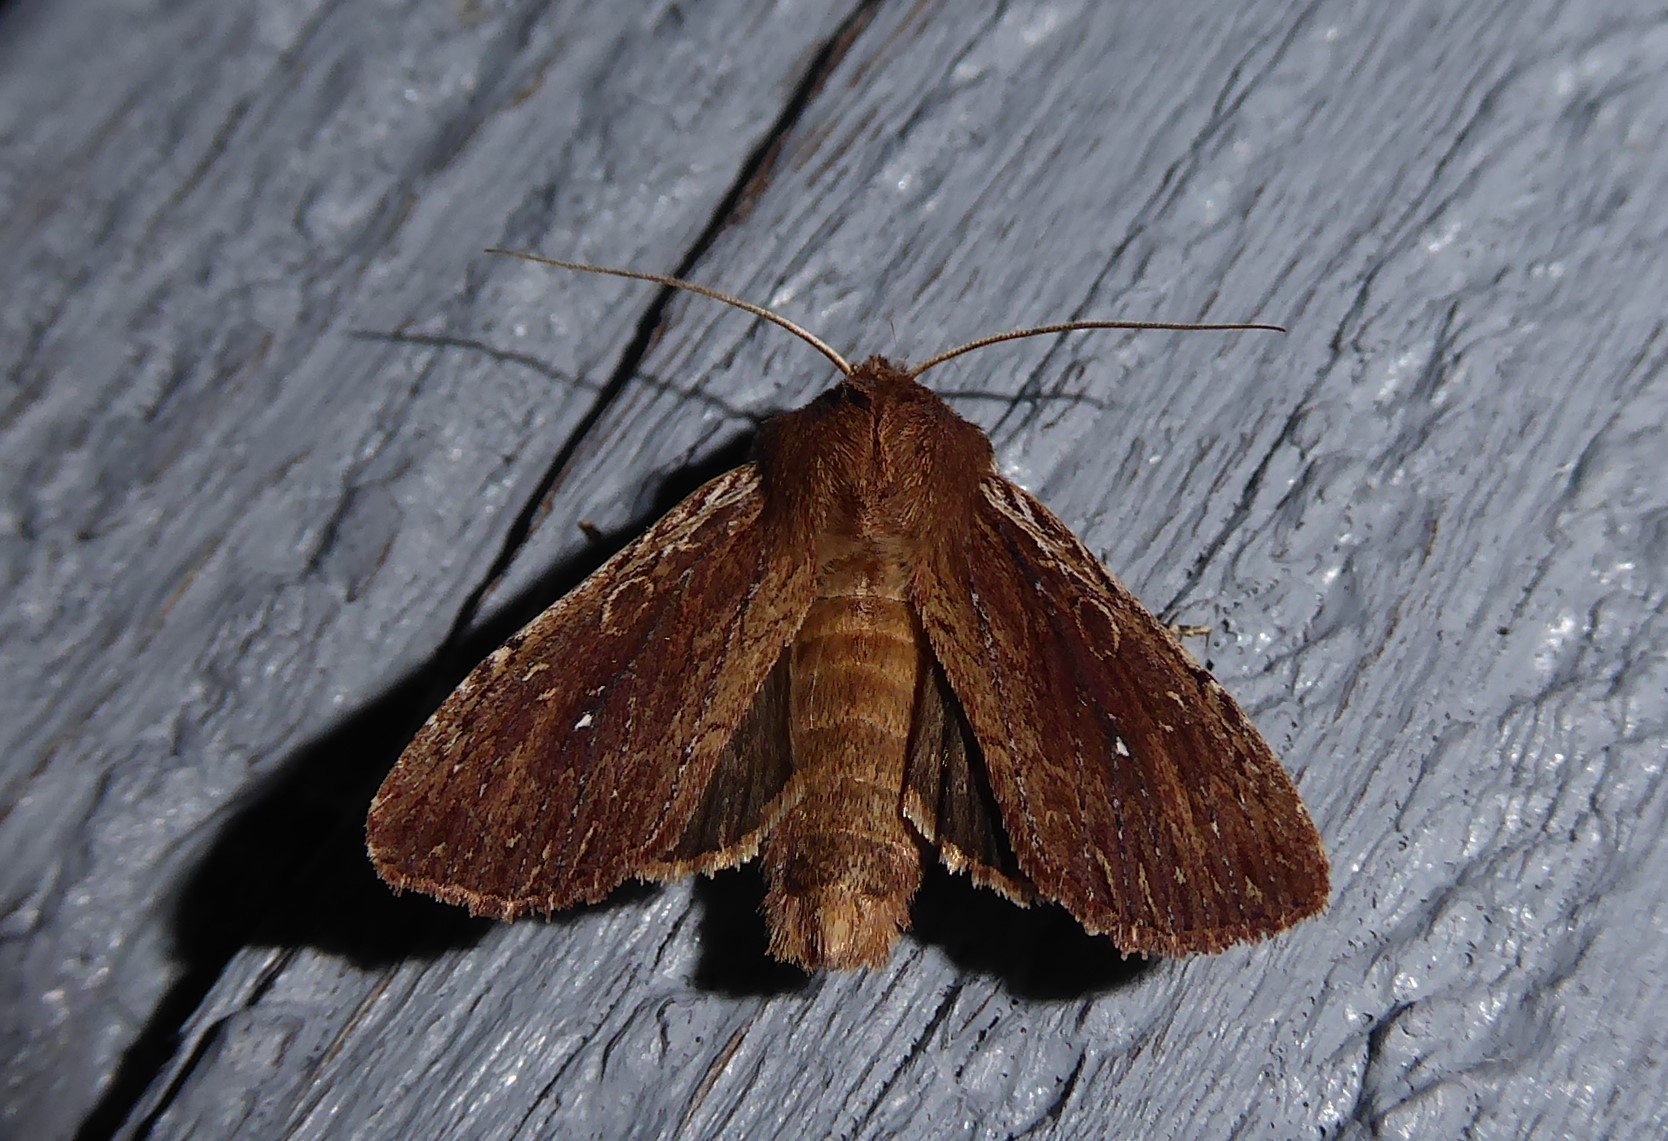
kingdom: Animalia
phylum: Arthropoda
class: Insecta
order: Lepidoptera
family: Noctuidae
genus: Ichneutica
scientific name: Ichneutica
